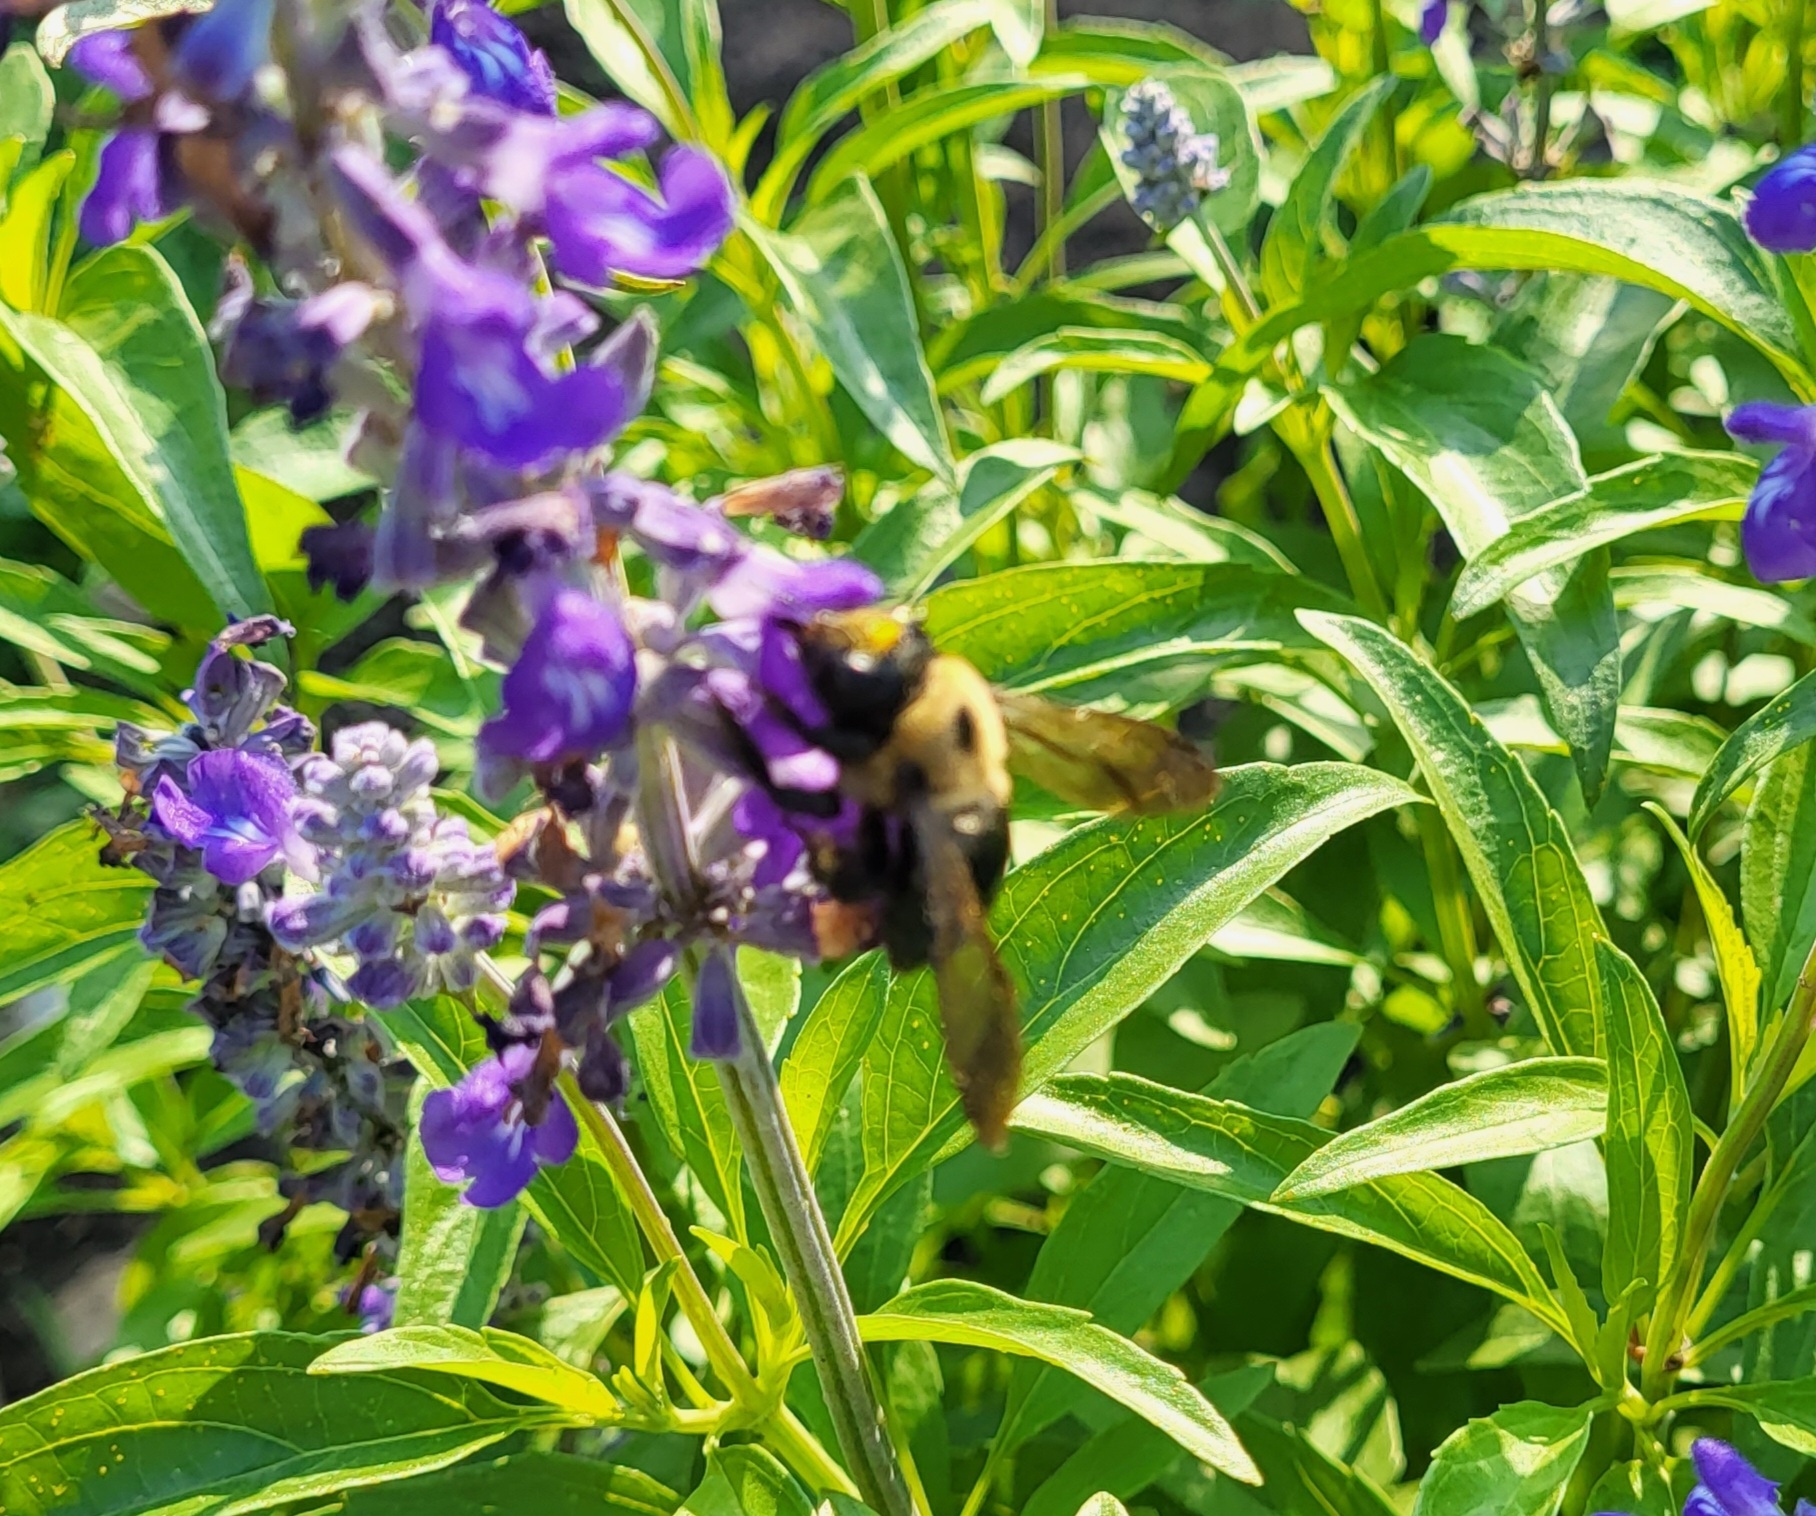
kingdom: Animalia
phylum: Arthropoda
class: Insecta
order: Hymenoptera
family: Apidae
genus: Xylocopa
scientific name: Xylocopa virginica
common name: Carpenter bee
